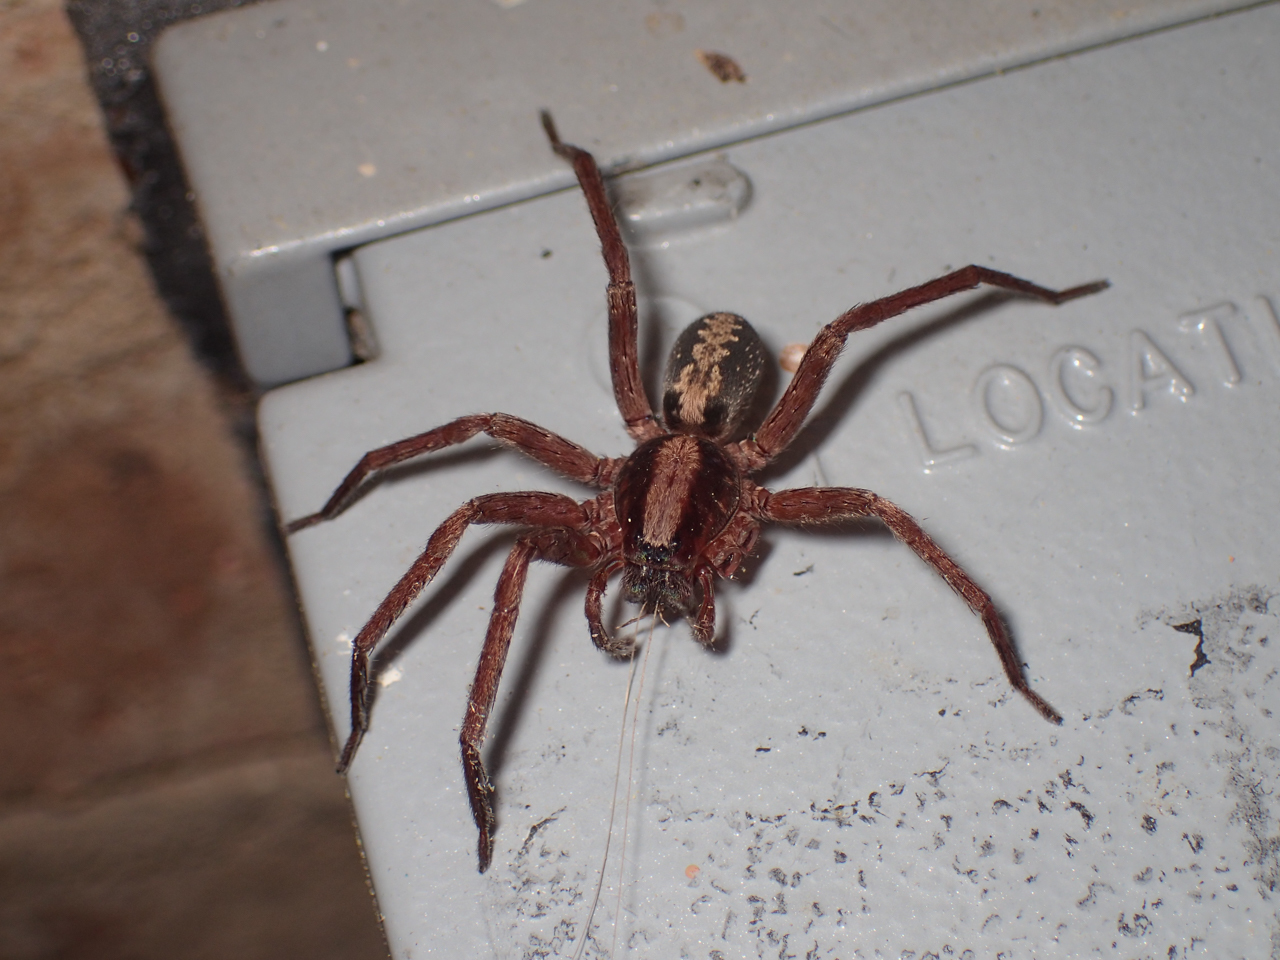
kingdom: Animalia
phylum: Arthropoda
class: Arachnida
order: Araneae
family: Ctenidae
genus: Ctenus
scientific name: Ctenus hibernalis
